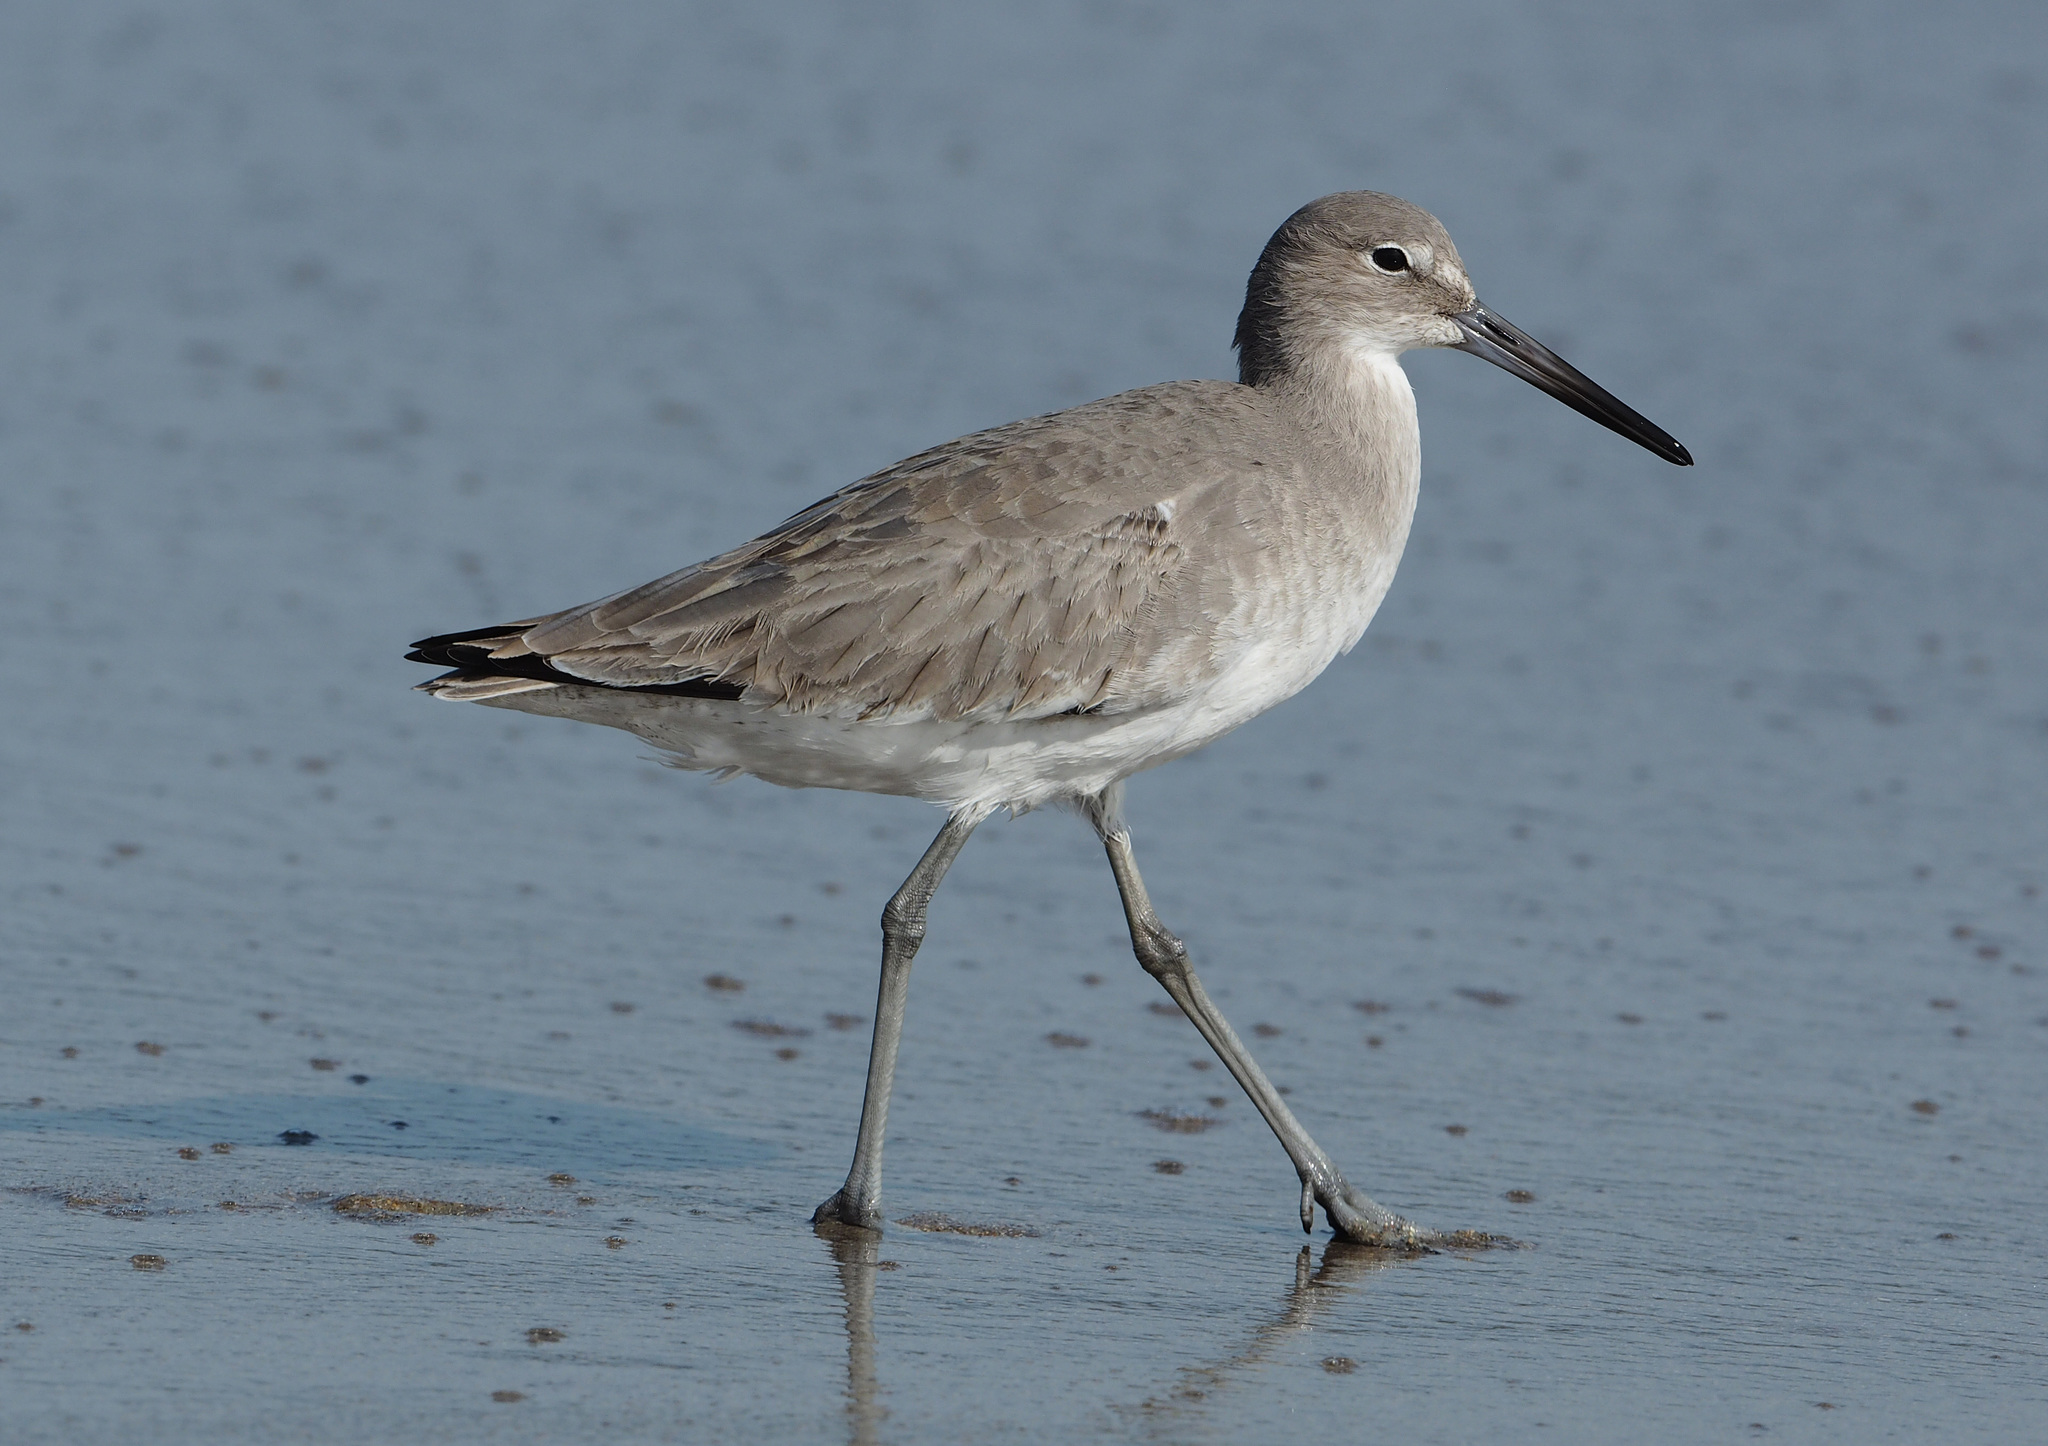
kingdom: Animalia
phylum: Chordata
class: Aves
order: Charadriiformes
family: Scolopacidae
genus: Tringa
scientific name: Tringa semipalmata
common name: Willet
